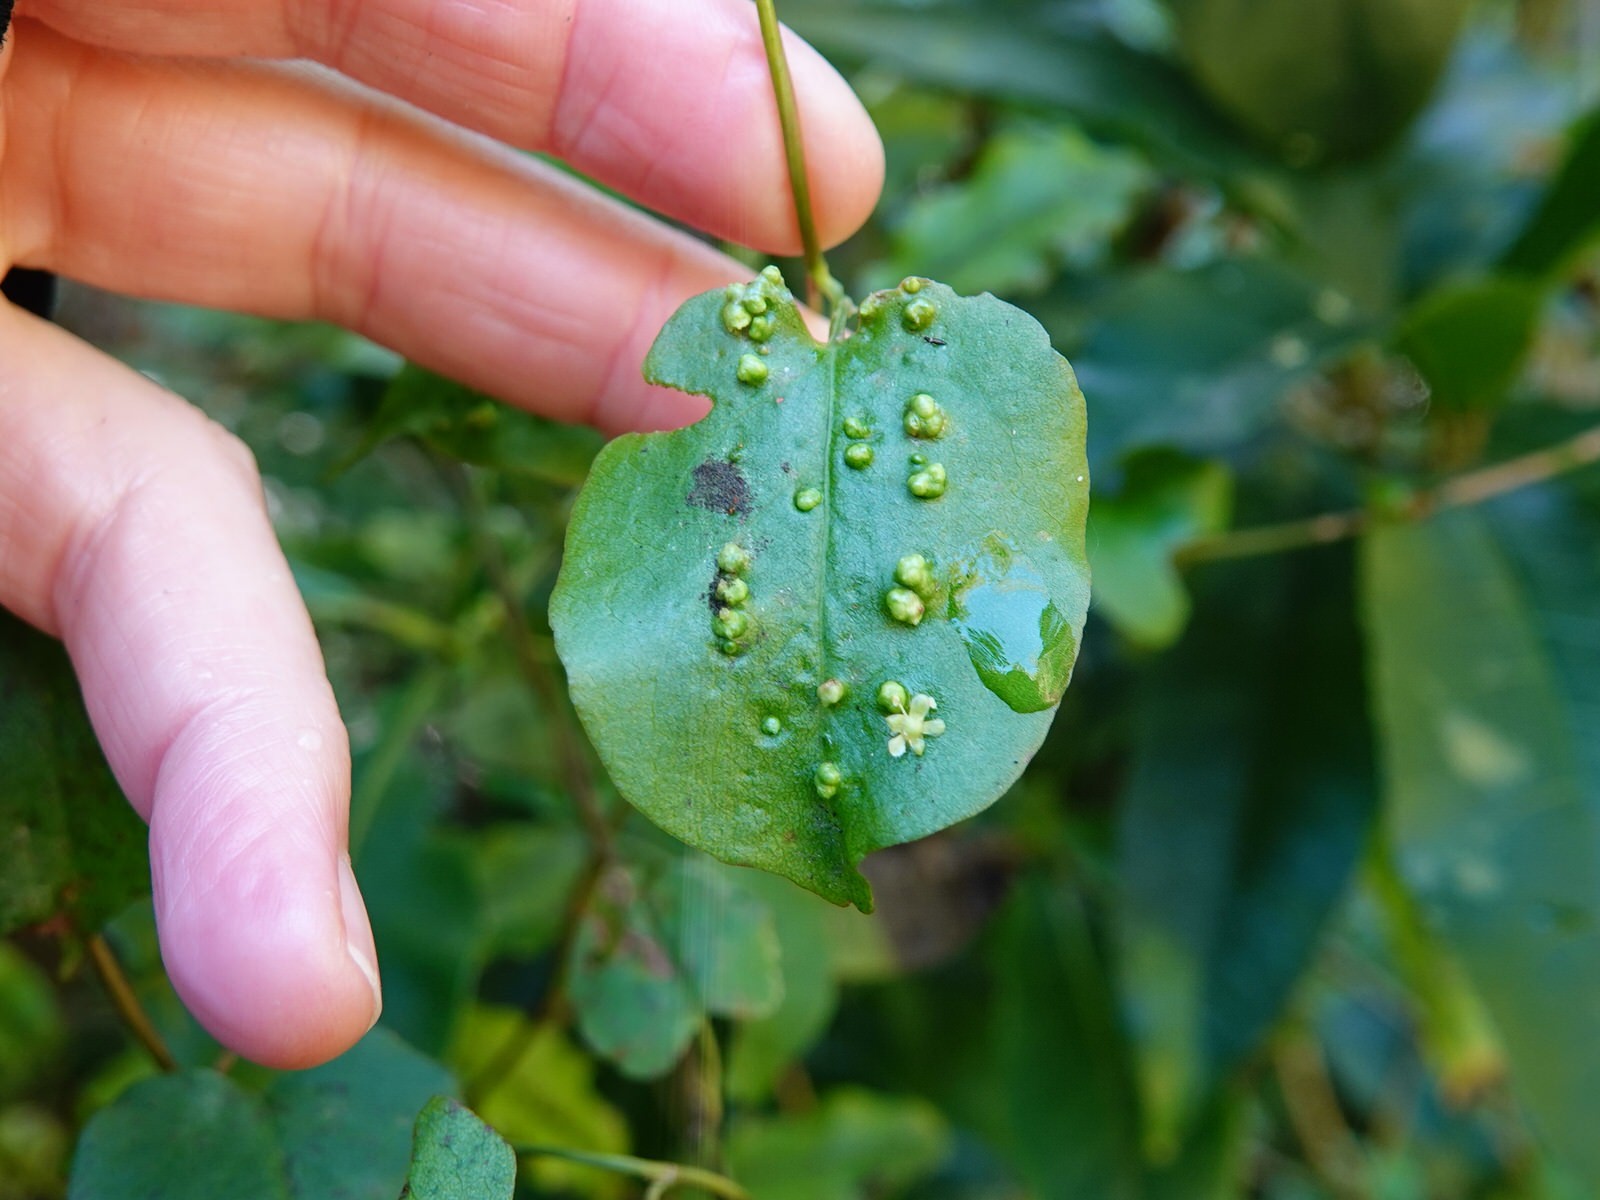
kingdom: Animalia
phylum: Arthropoda
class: Arachnida
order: Trombidiformes
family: Eriophyidae
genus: Aceria
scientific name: Aceria lamii
